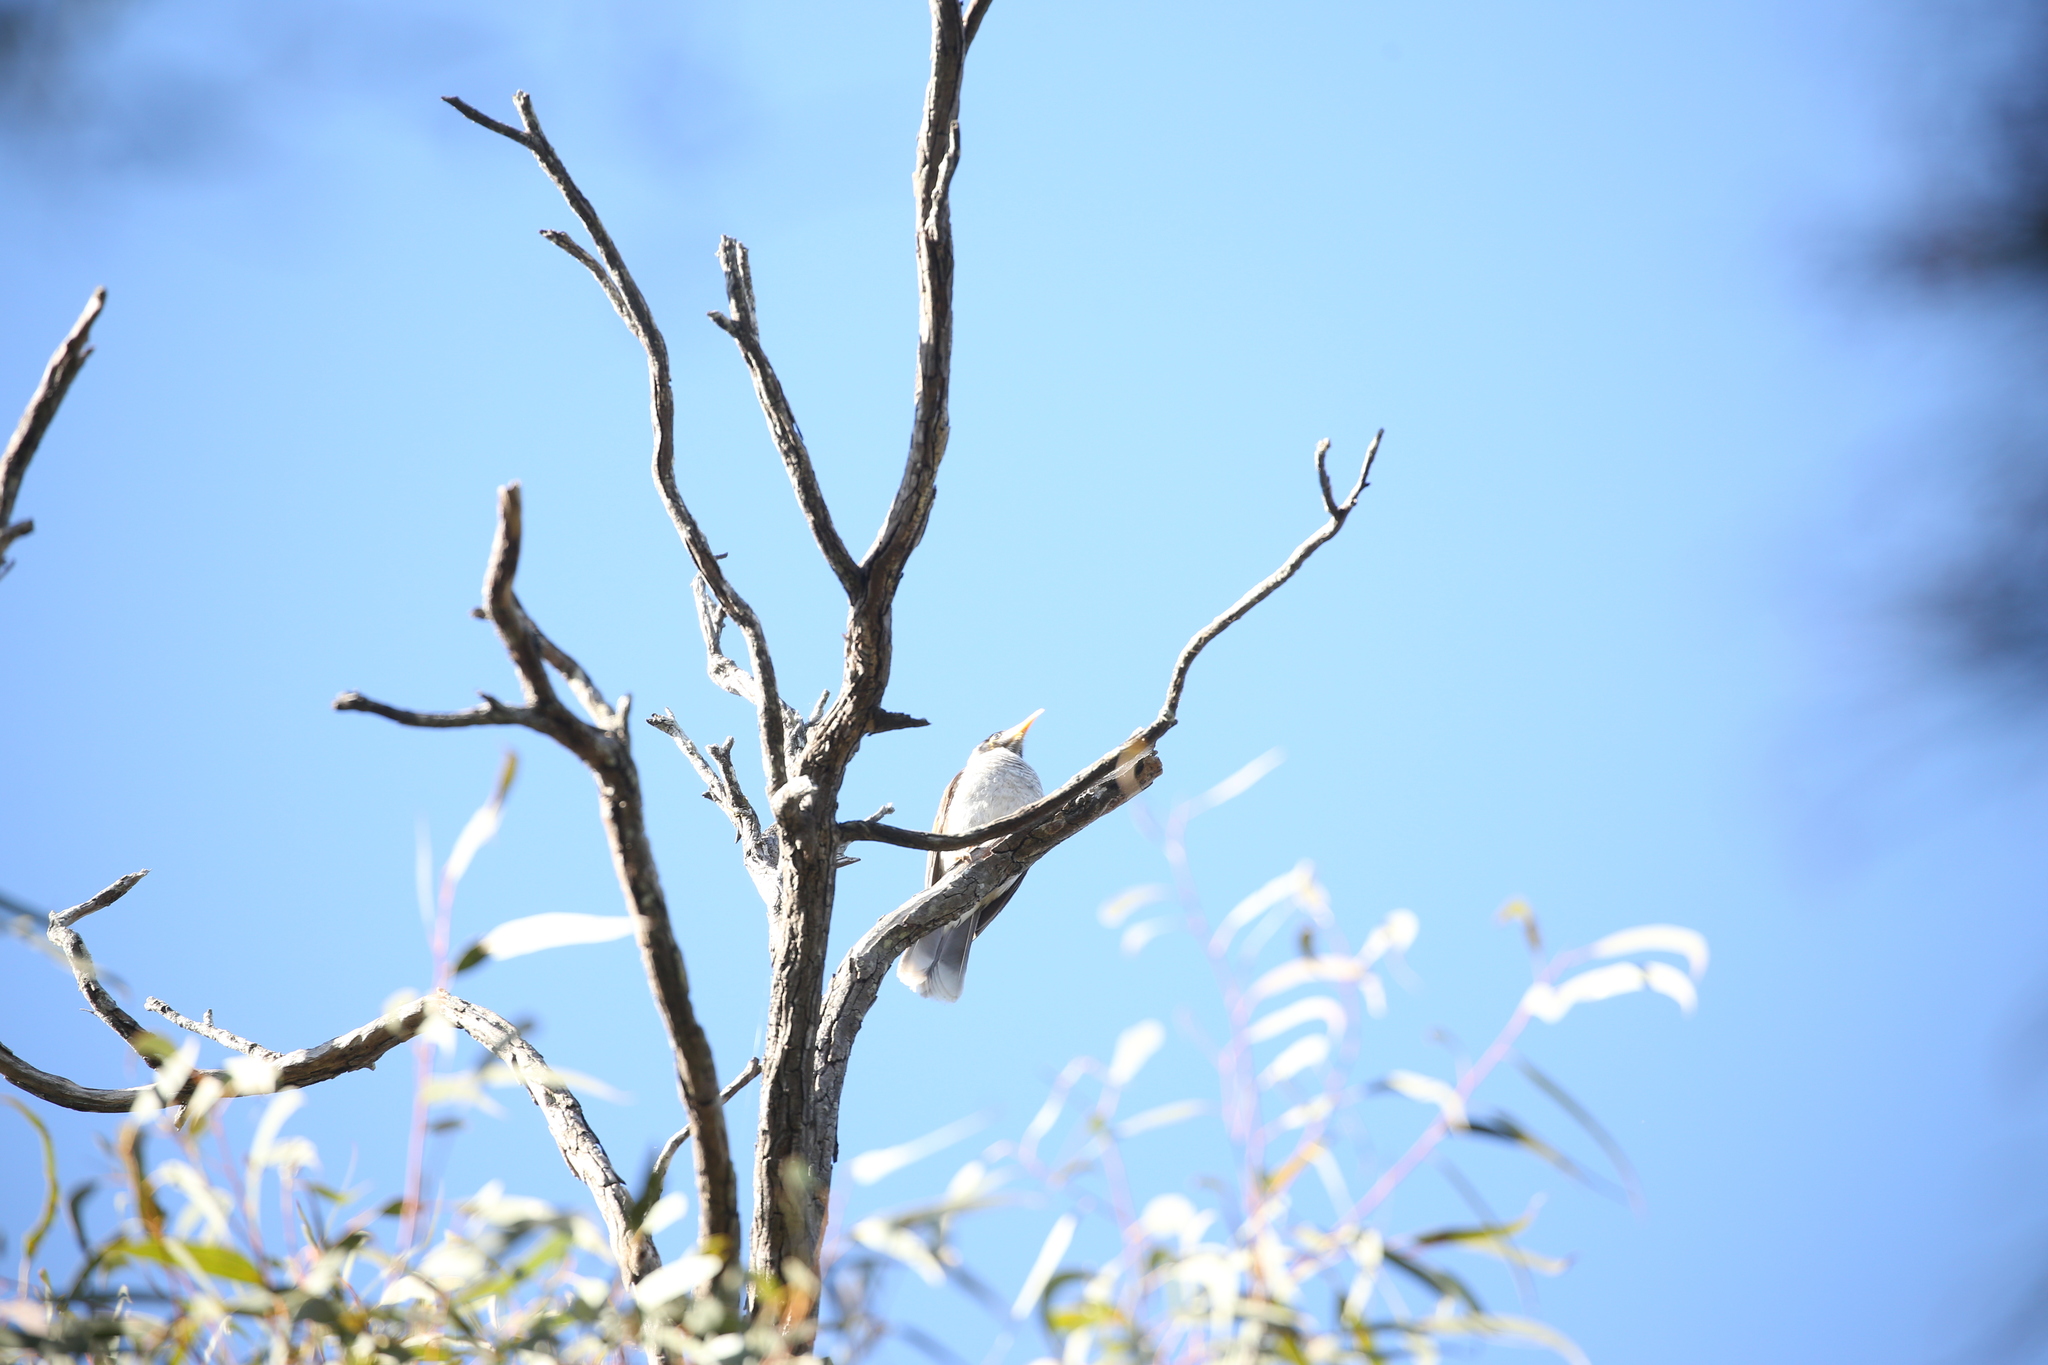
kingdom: Animalia
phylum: Chordata
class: Aves
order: Passeriformes
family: Meliphagidae
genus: Manorina
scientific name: Manorina melanocephala
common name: Noisy miner
